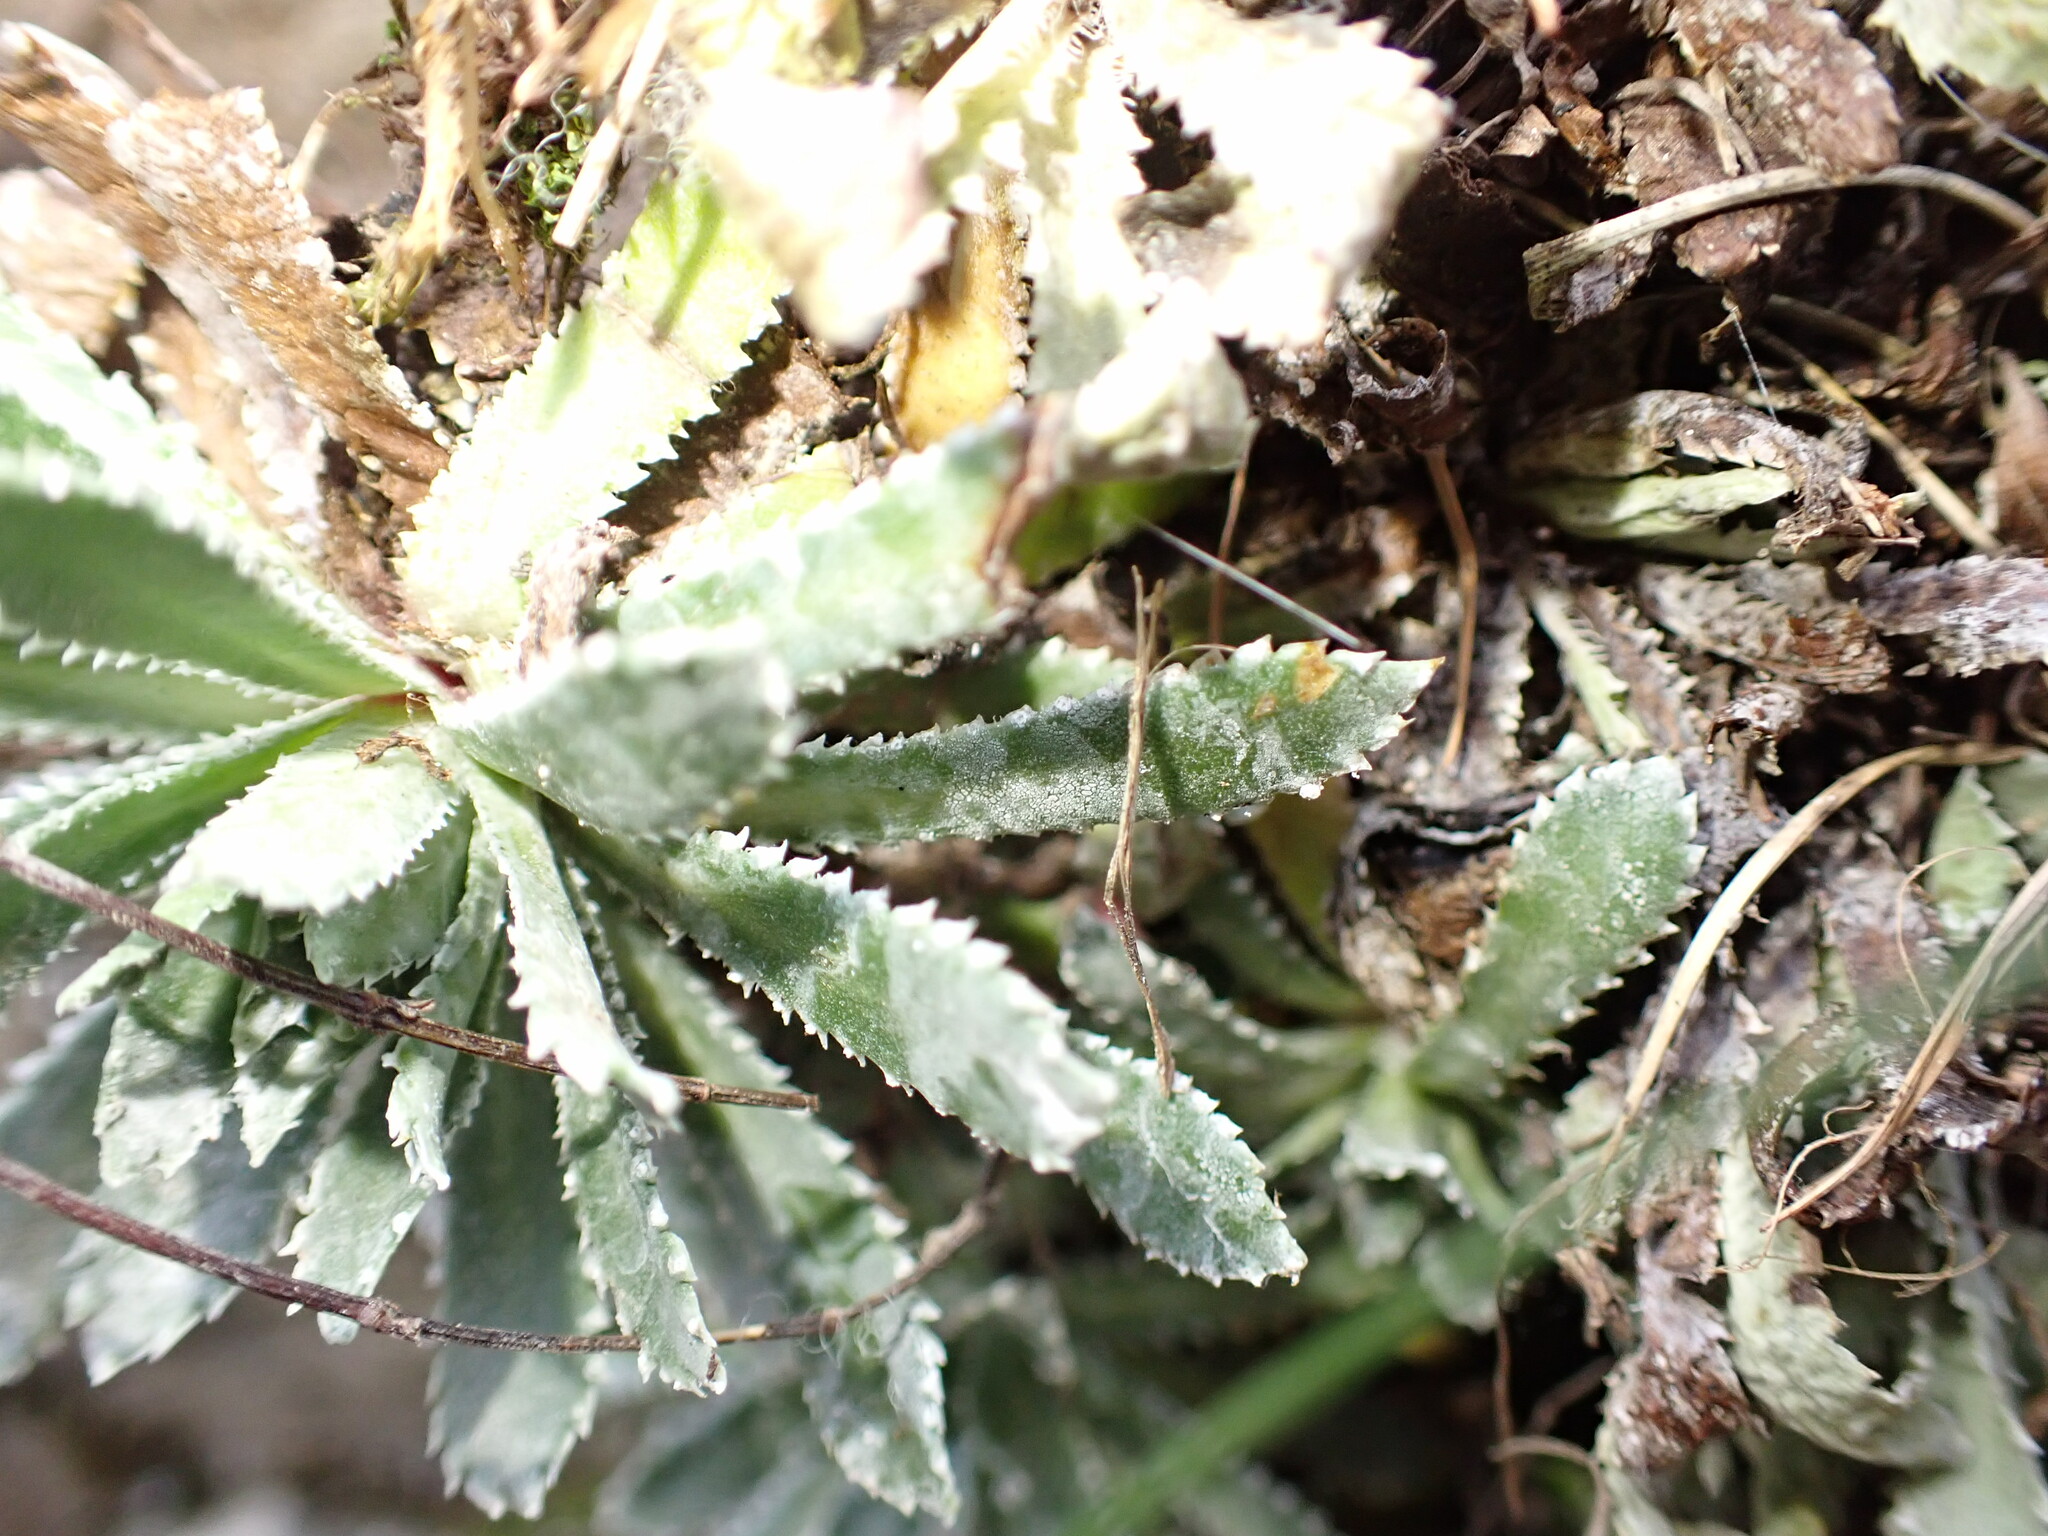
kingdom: Plantae
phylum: Tracheophyta
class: Magnoliopsida
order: Saxifragales
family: Saxifragaceae
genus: Saxifraga
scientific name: Saxifraga paniculata
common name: Livelong saxifrage
